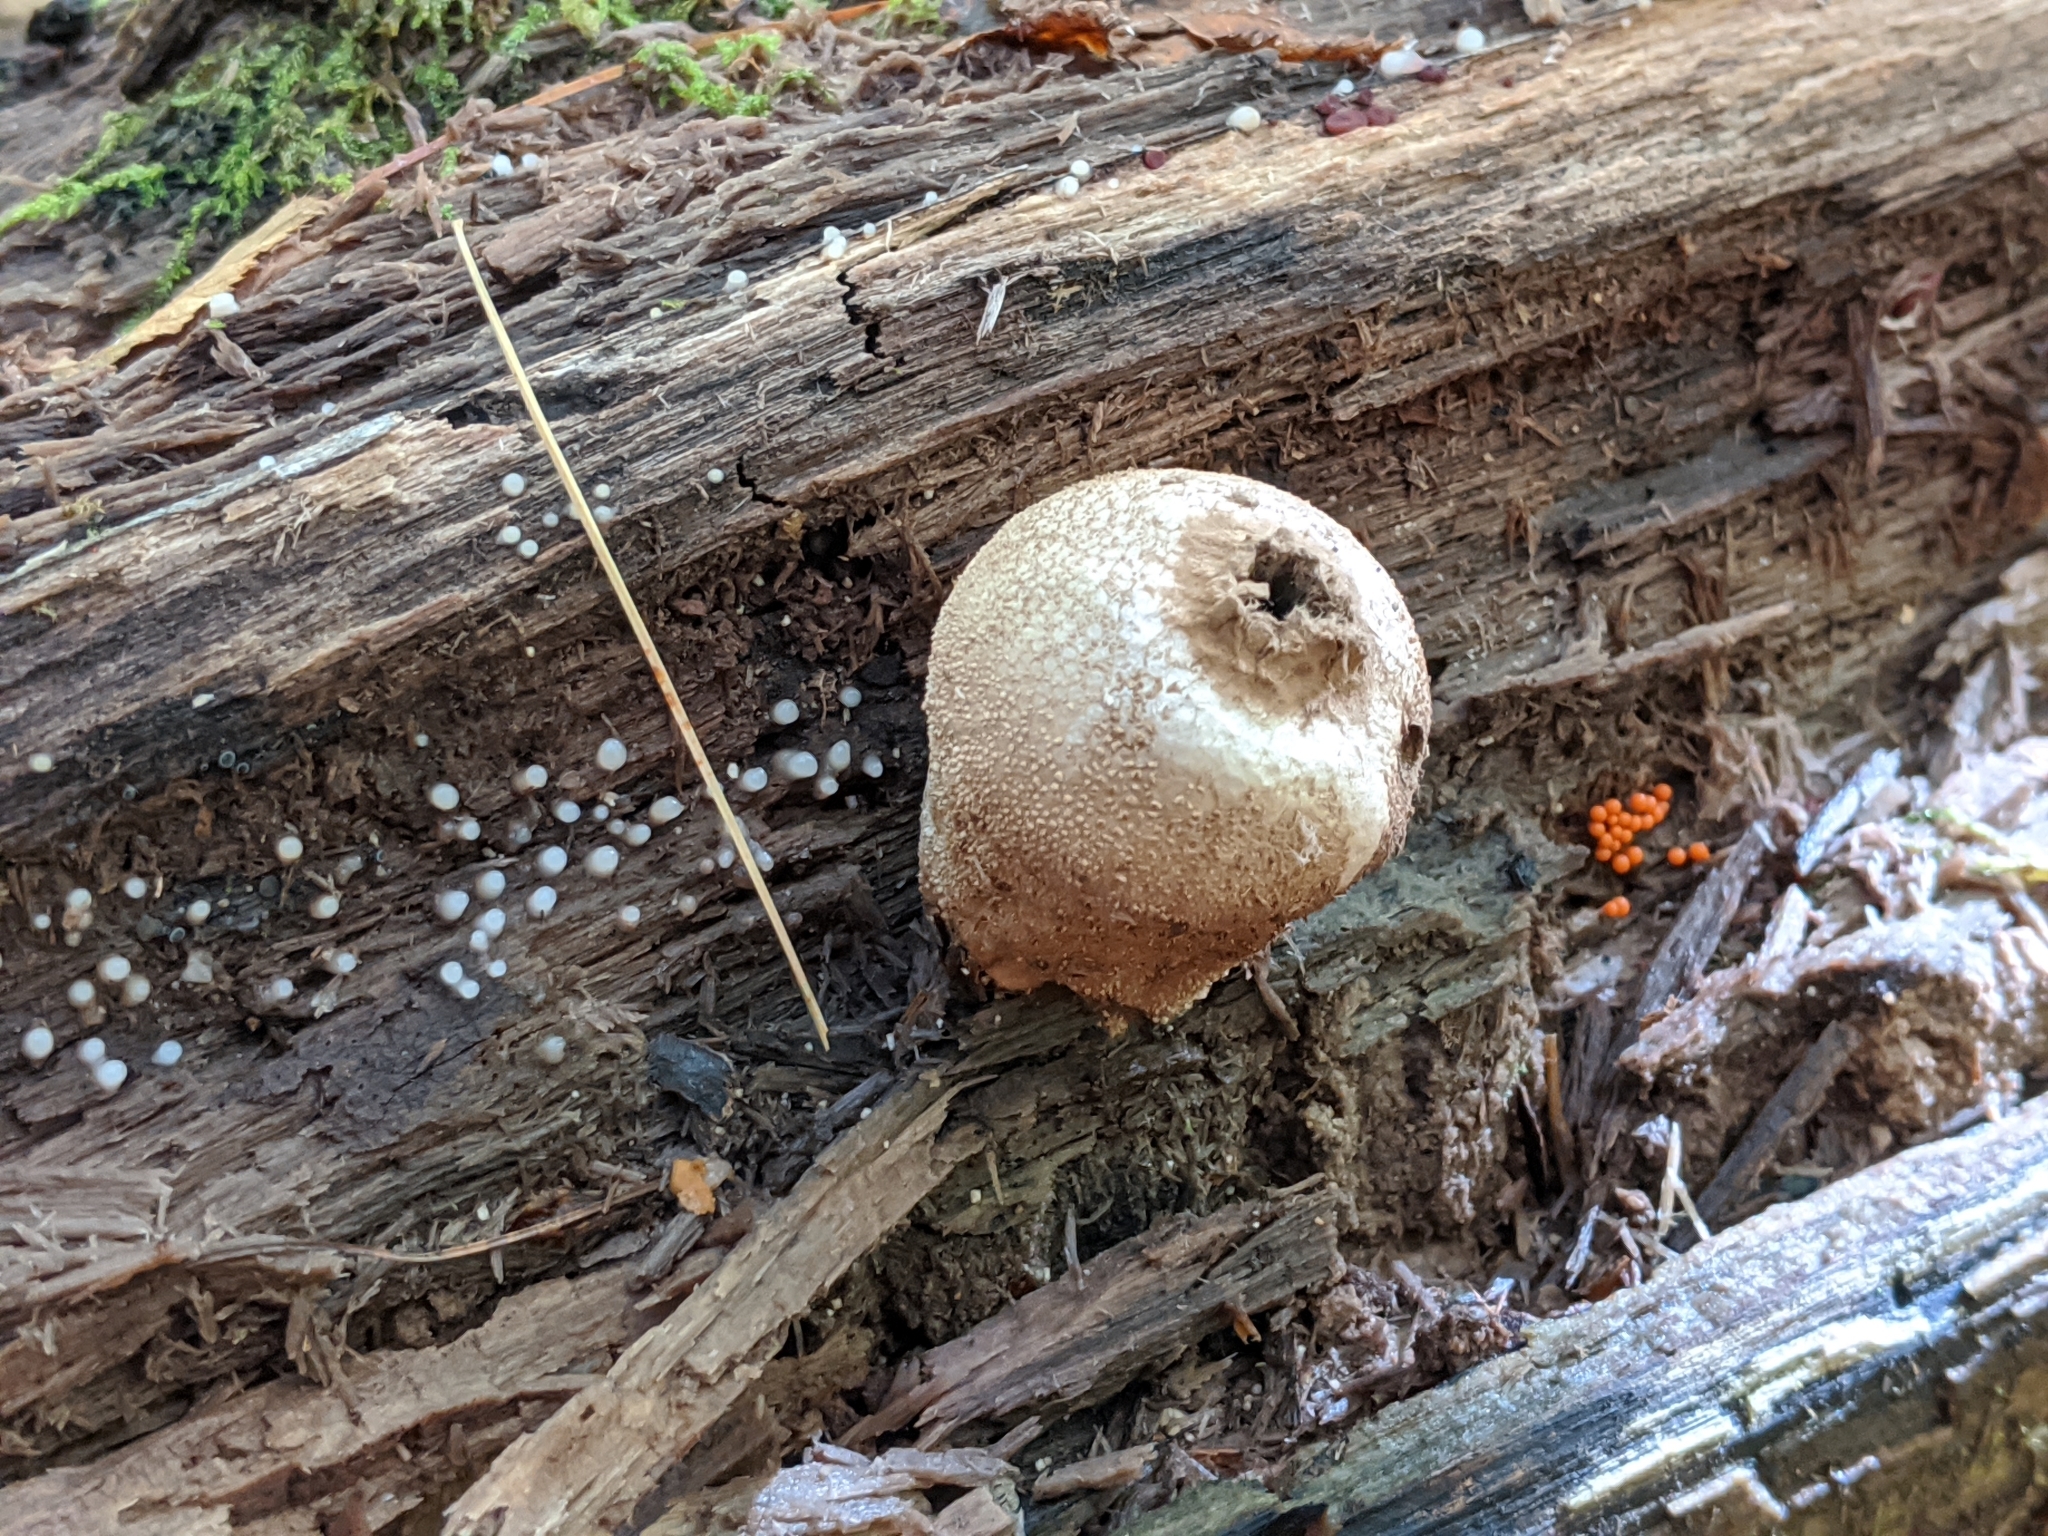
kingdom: Fungi
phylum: Basidiomycota
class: Agaricomycetes
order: Agaricales
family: Lycoperdaceae
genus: Lycoperdon
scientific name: Lycoperdon perlatum
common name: Common puffball
